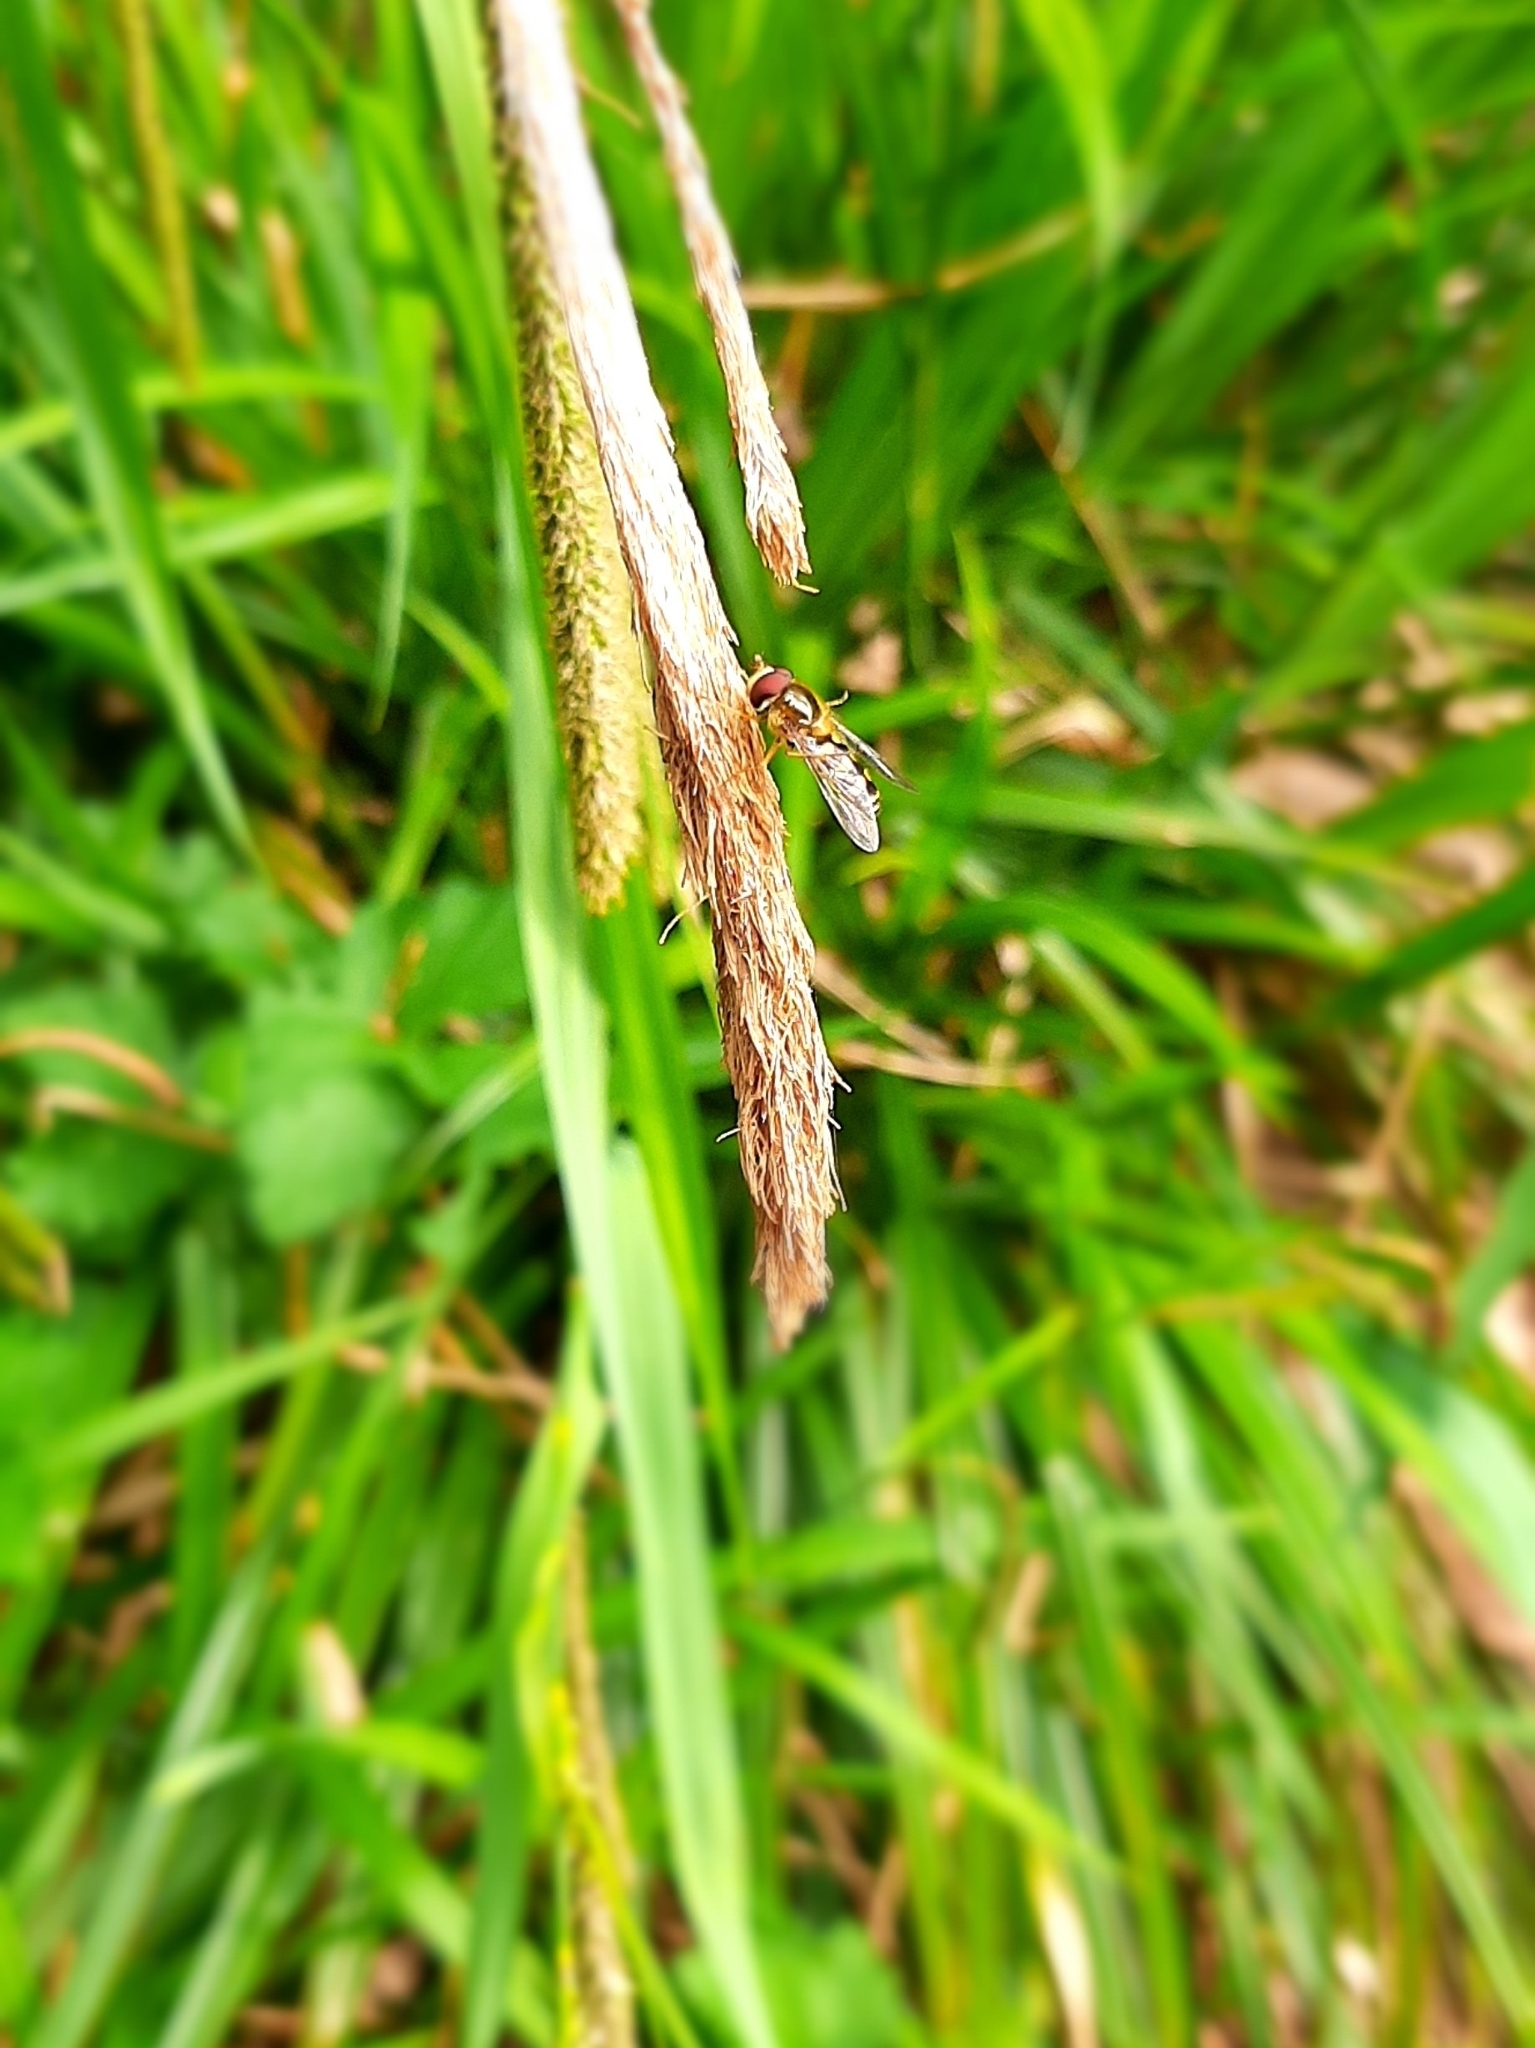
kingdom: Animalia
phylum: Arthropoda
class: Insecta
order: Diptera
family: Syrphidae
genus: Lapposyrphus
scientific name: Lapposyrphus lapponicus
